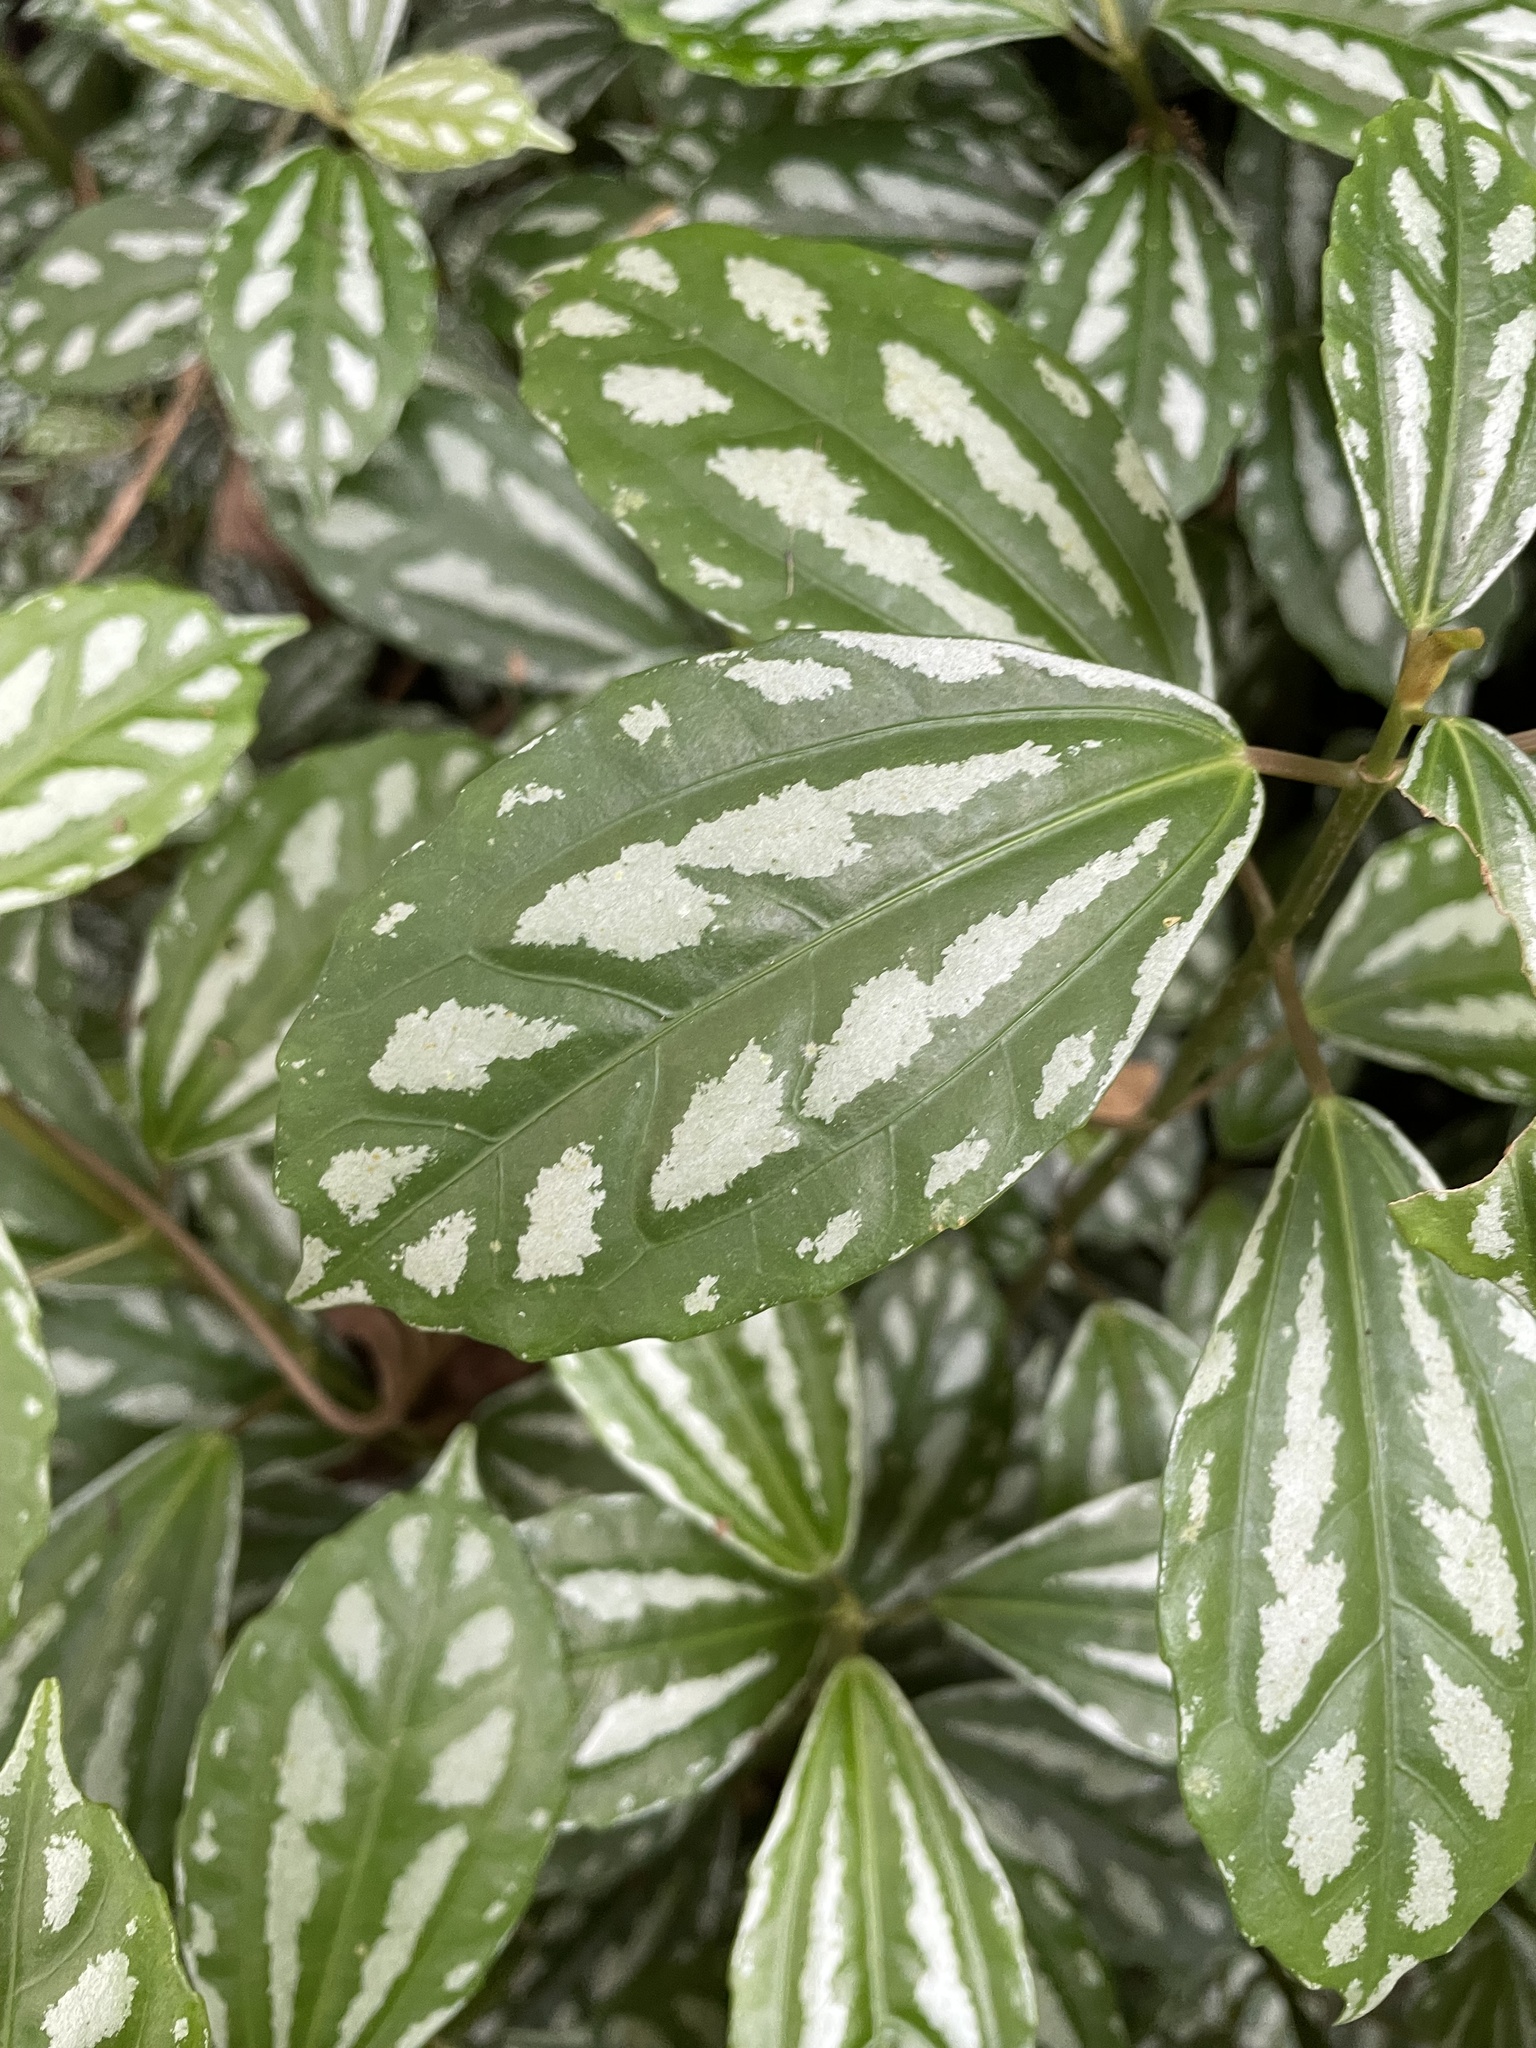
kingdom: Plantae
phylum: Tracheophyta
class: Magnoliopsida
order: Rosales
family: Urticaceae
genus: Pilea
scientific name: Pilea cadierei
